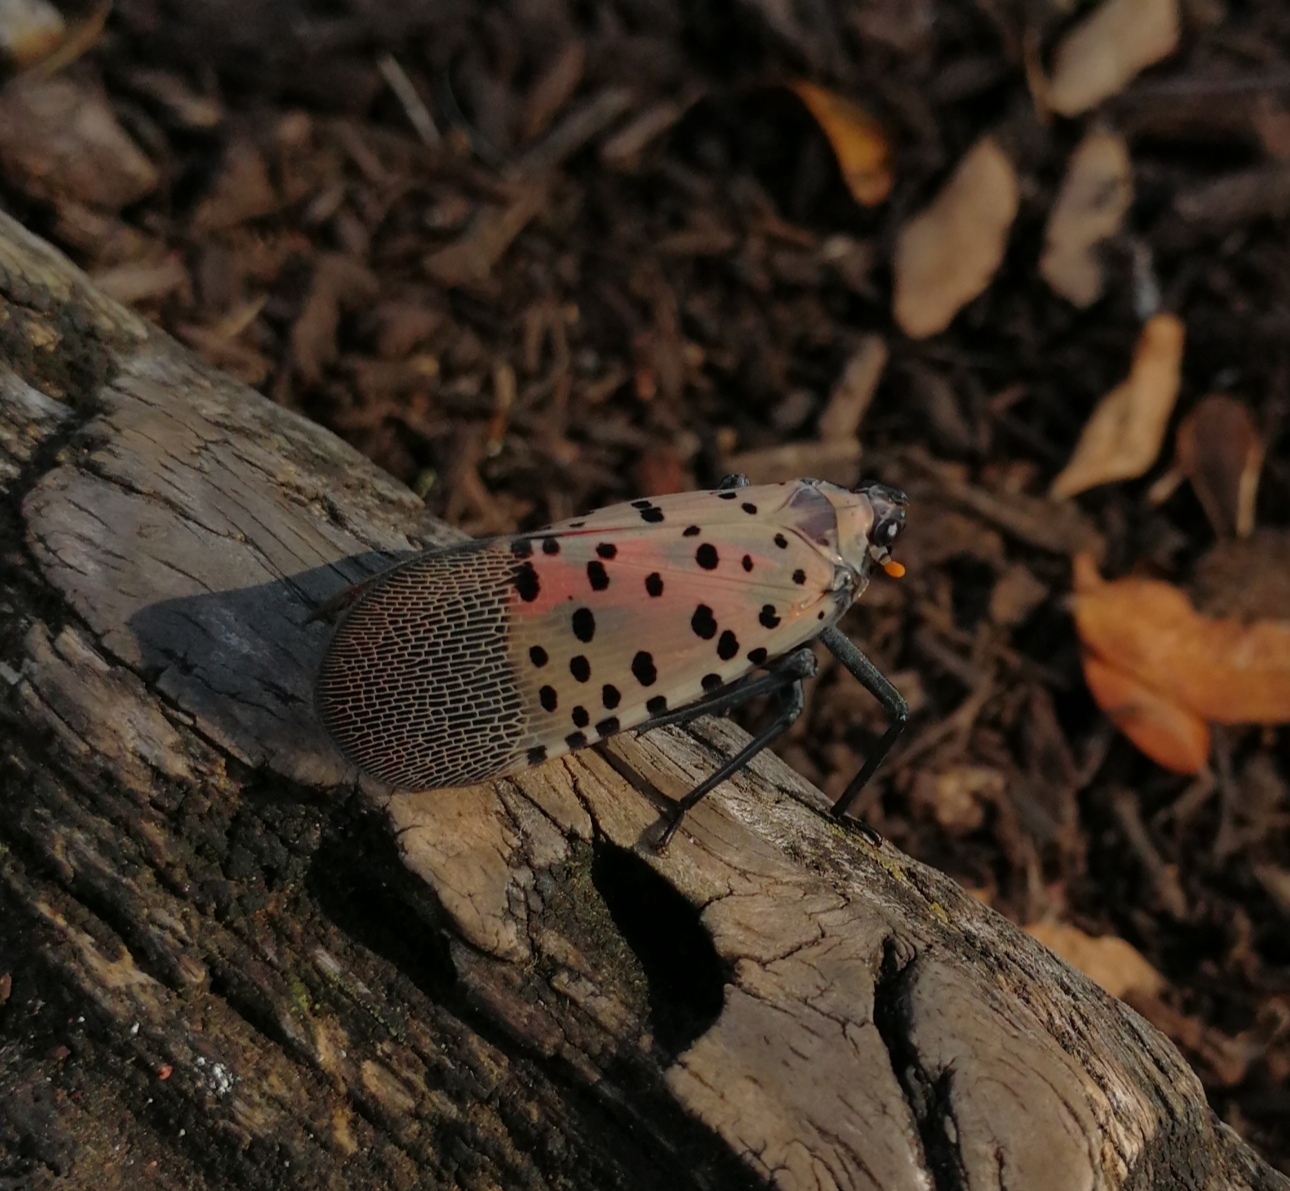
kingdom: Animalia
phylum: Arthropoda
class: Insecta
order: Hemiptera
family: Fulgoridae
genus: Lycorma
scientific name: Lycorma delicatula
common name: Spotted lanternfly
